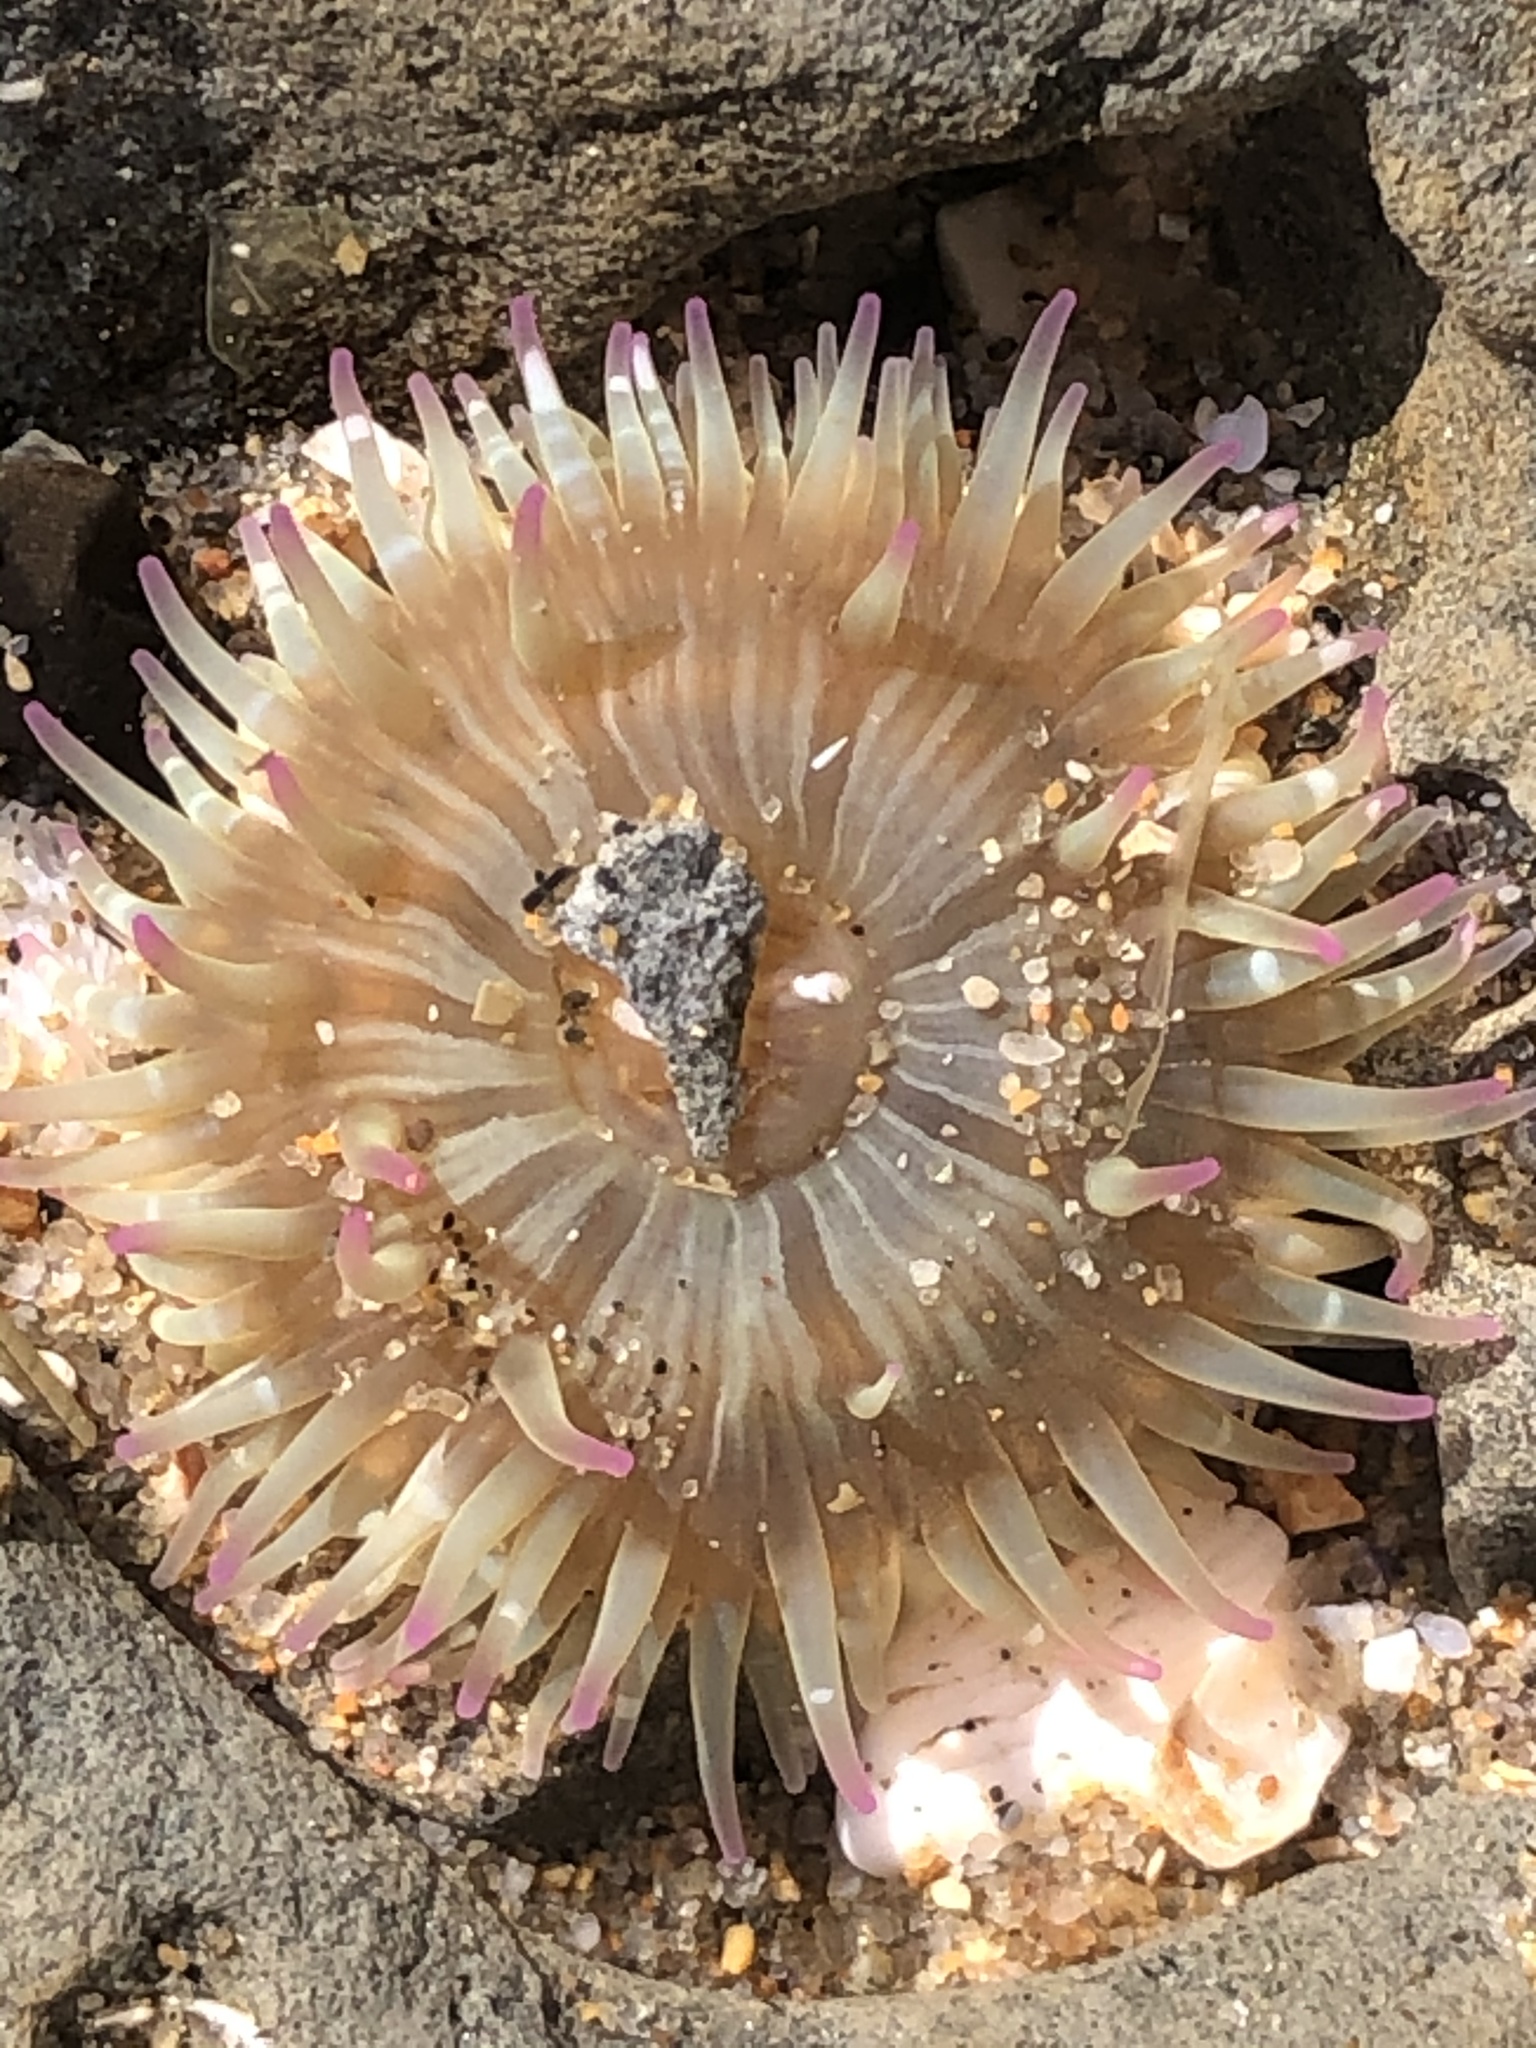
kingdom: Animalia
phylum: Cnidaria
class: Anthozoa
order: Actiniaria
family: Actiniidae
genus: Anthopleura
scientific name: Anthopleura elegantissima
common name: Clonal anemone
